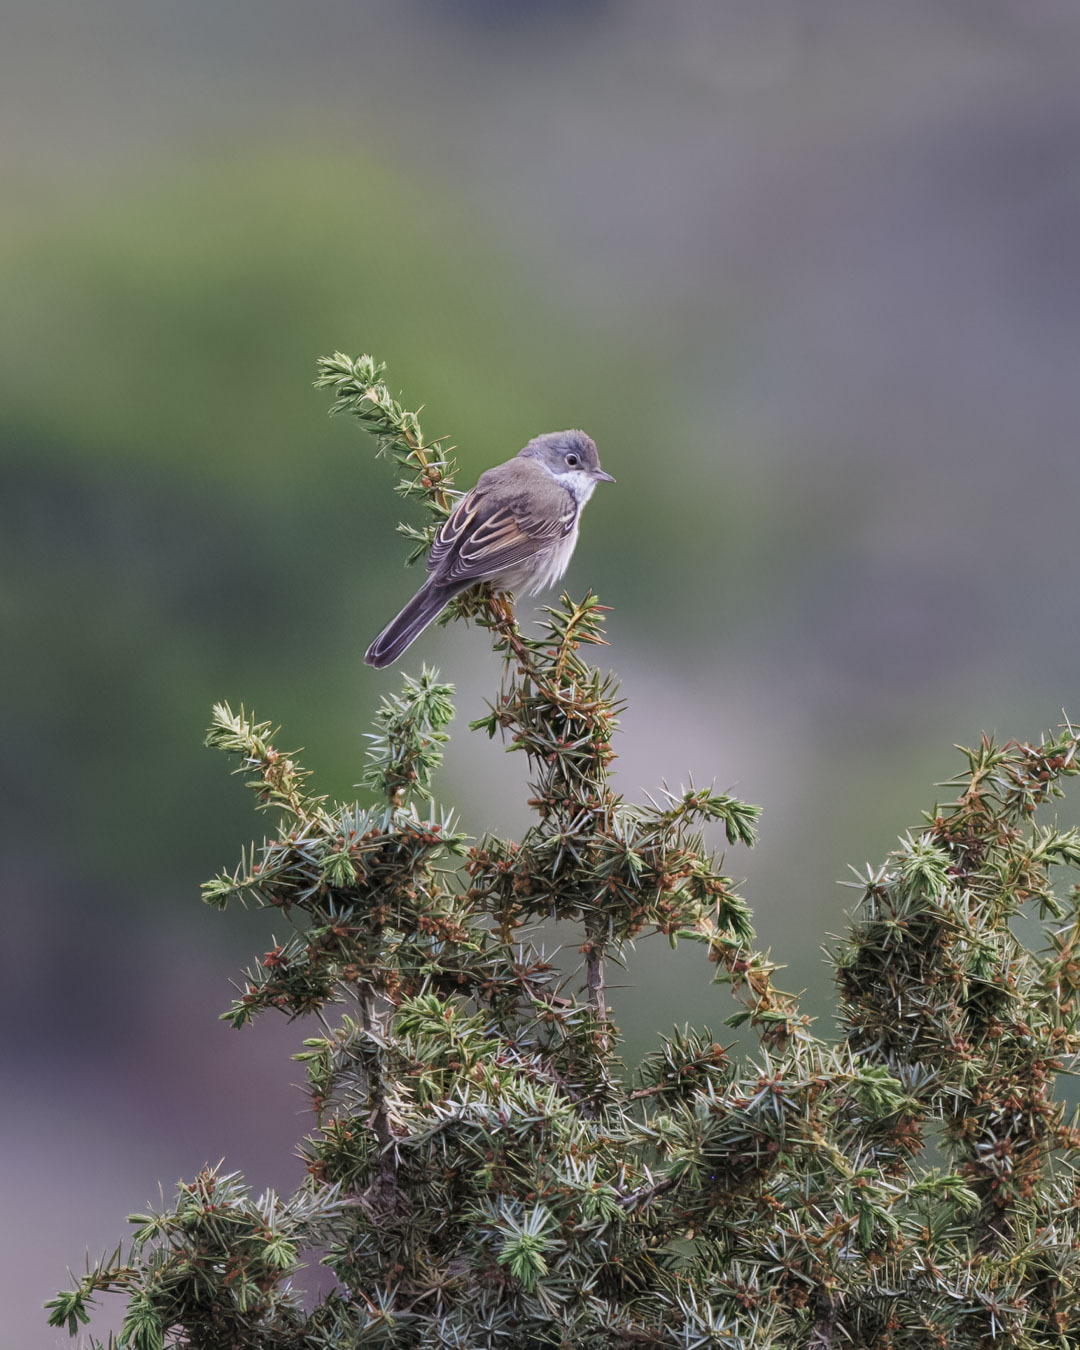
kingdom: Animalia
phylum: Chordata
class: Aves
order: Passeriformes
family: Sylviidae
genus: Sylvia
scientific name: Sylvia communis
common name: Common whitethroat
